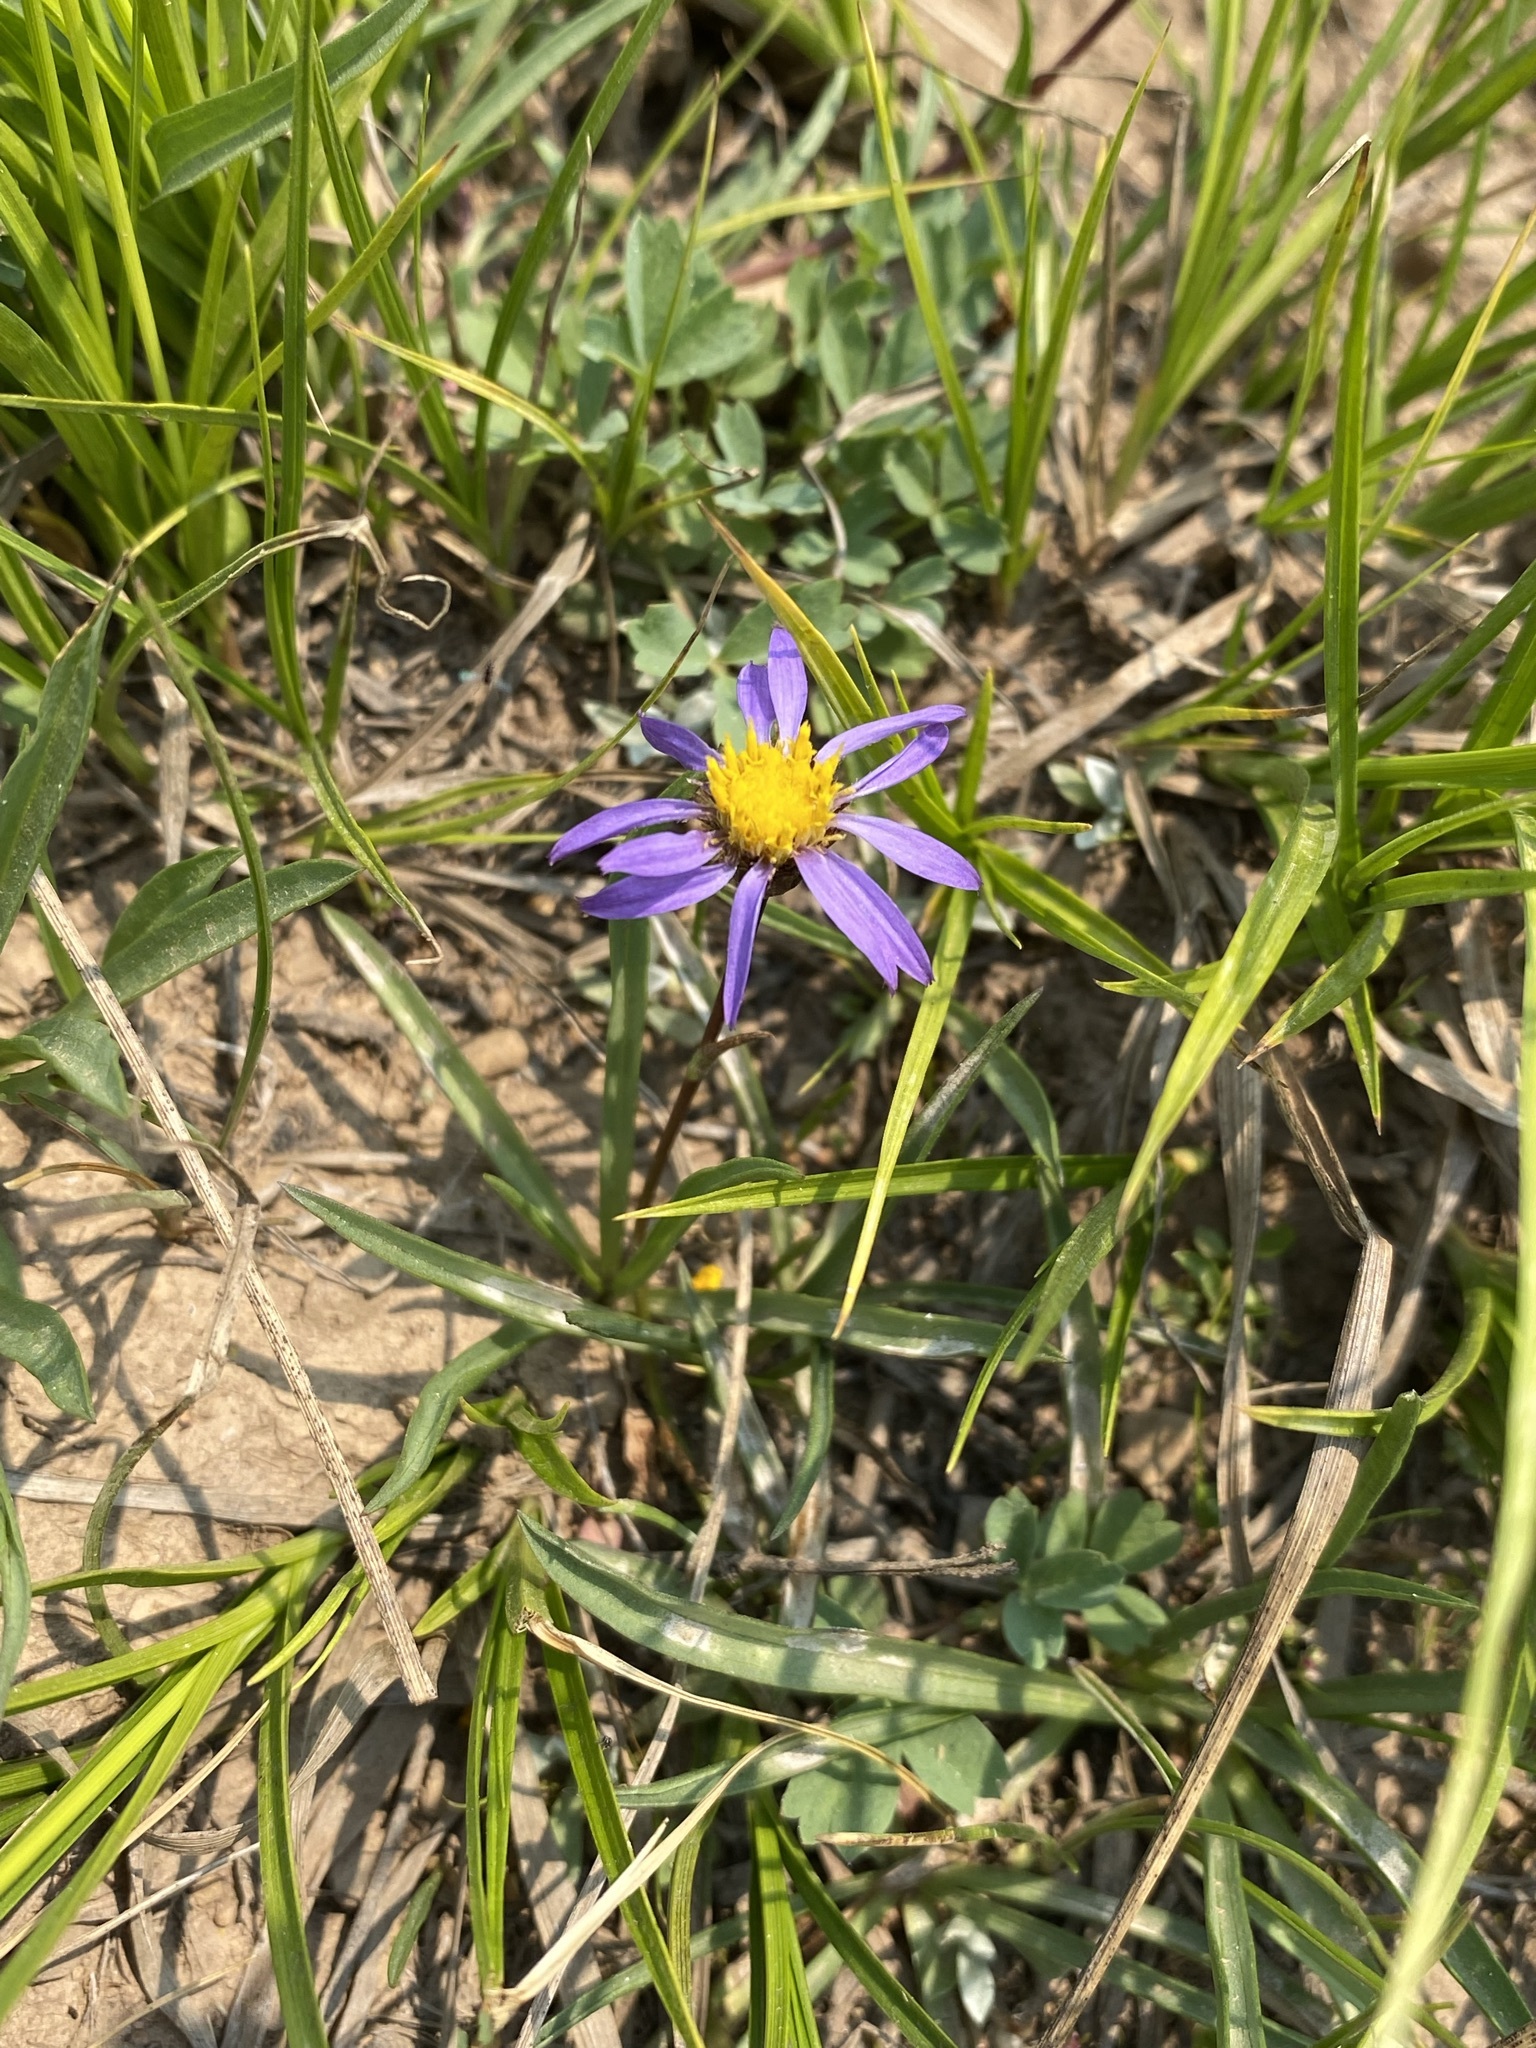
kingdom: Plantae
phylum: Tracheophyta
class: Magnoliopsida
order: Asterales
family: Asteraceae
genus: Oreostemma
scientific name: Oreostemma alpigenum
